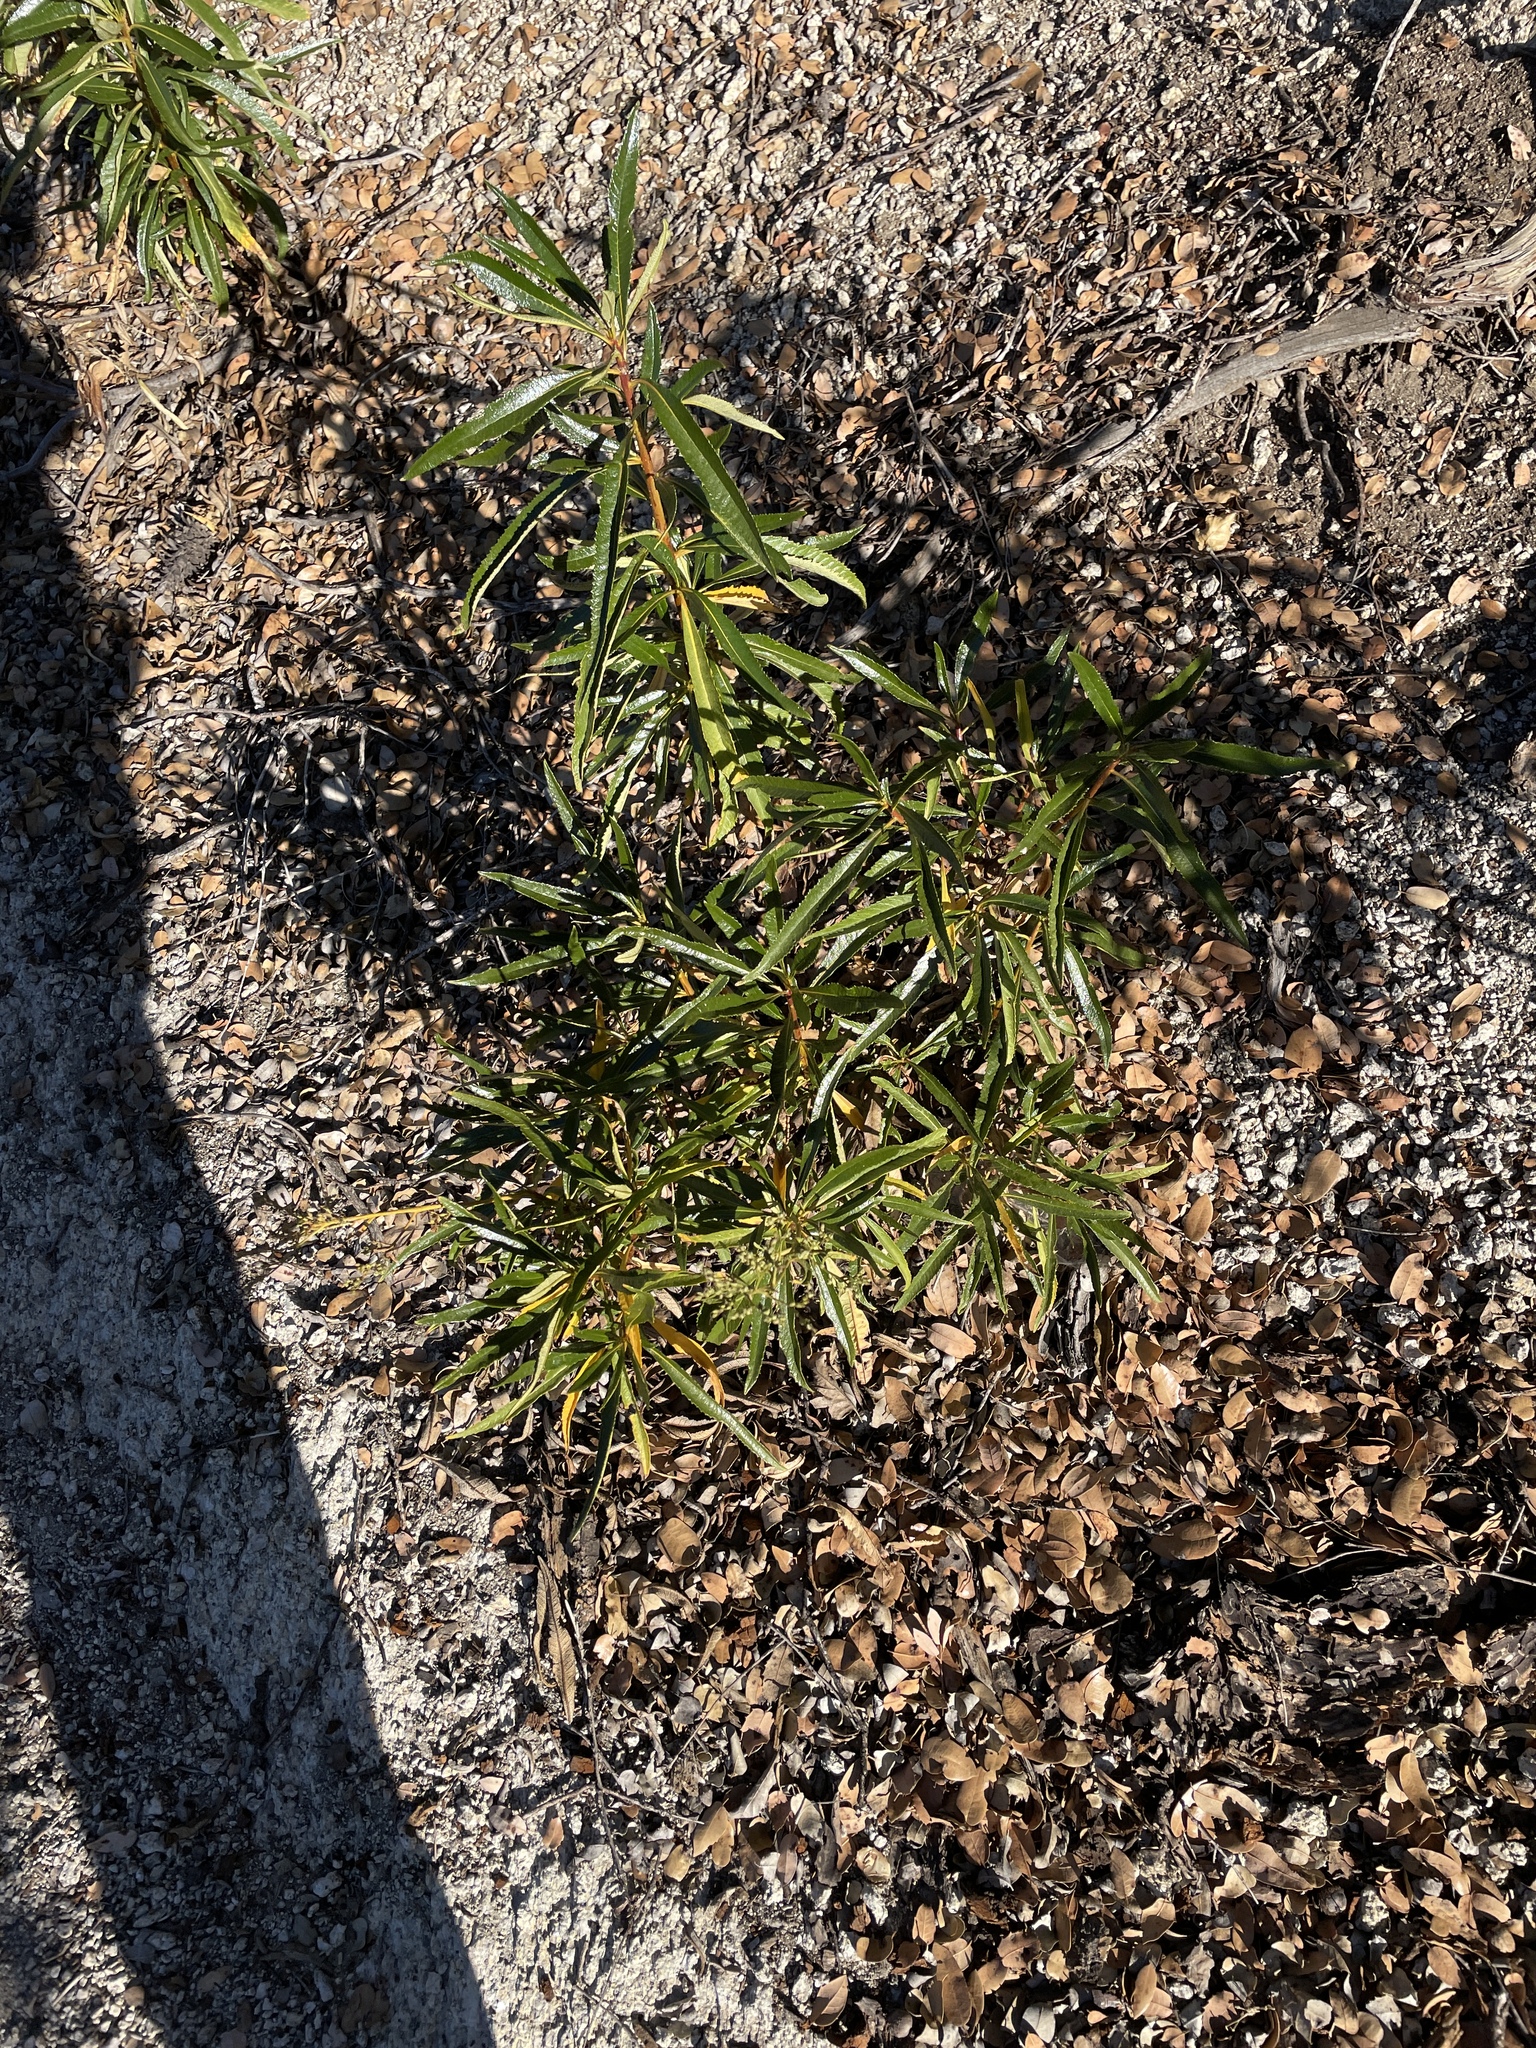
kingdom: Plantae
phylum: Tracheophyta
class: Magnoliopsida
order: Boraginales
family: Namaceae
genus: Eriodictyon
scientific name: Eriodictyon californicum
